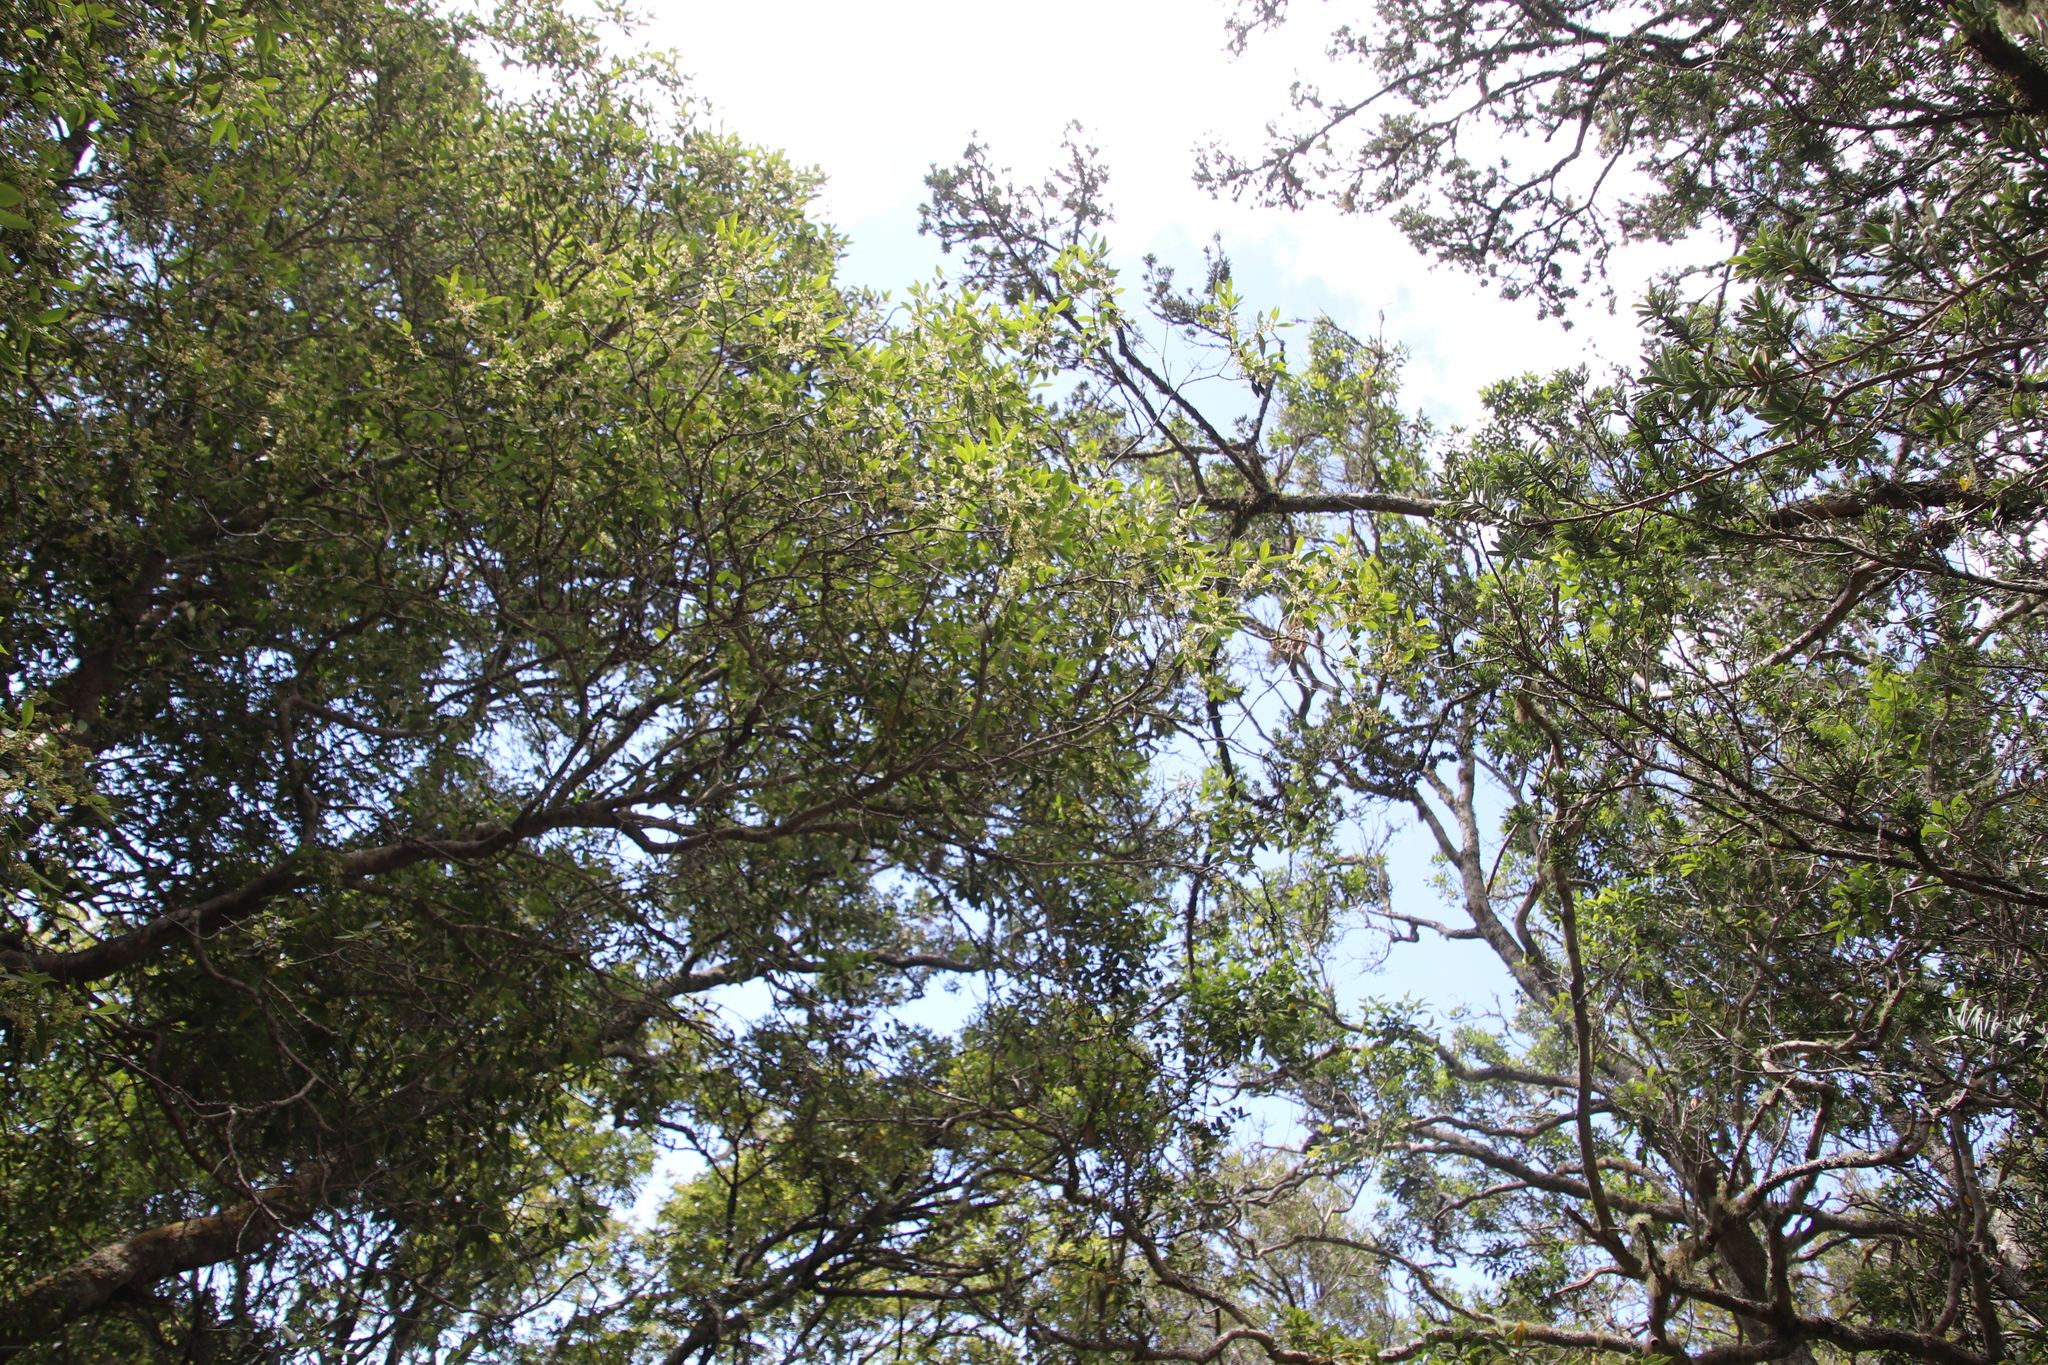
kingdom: Plantae
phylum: Tracheophyta
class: Magnoliopsida
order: Celastrales
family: Celastraceae
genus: Elaeodendron
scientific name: Elaeodendron schinoides
